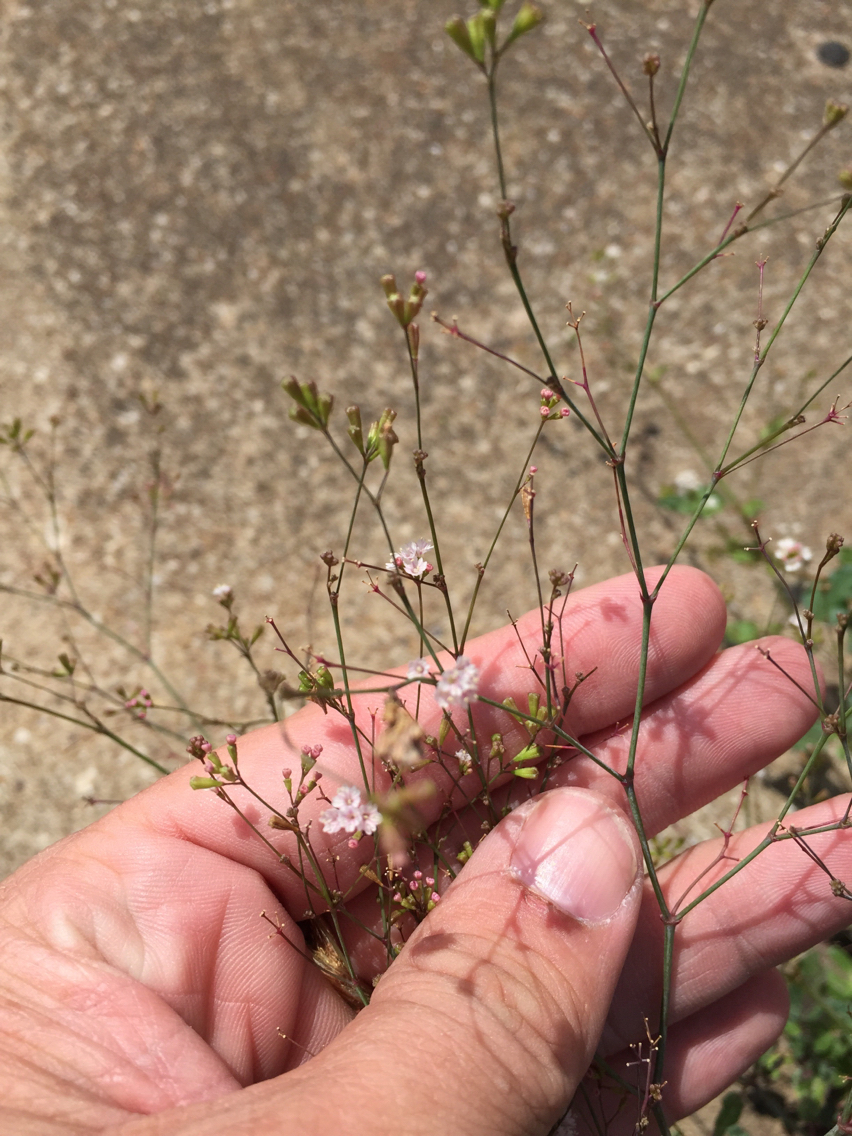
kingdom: Plantae
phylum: Tracheophyta
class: Magnoliopsida
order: Caryophyllales
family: Nyctaginaceae
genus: Boerhavia
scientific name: Boerhavia erecta
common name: Erect spiderling
